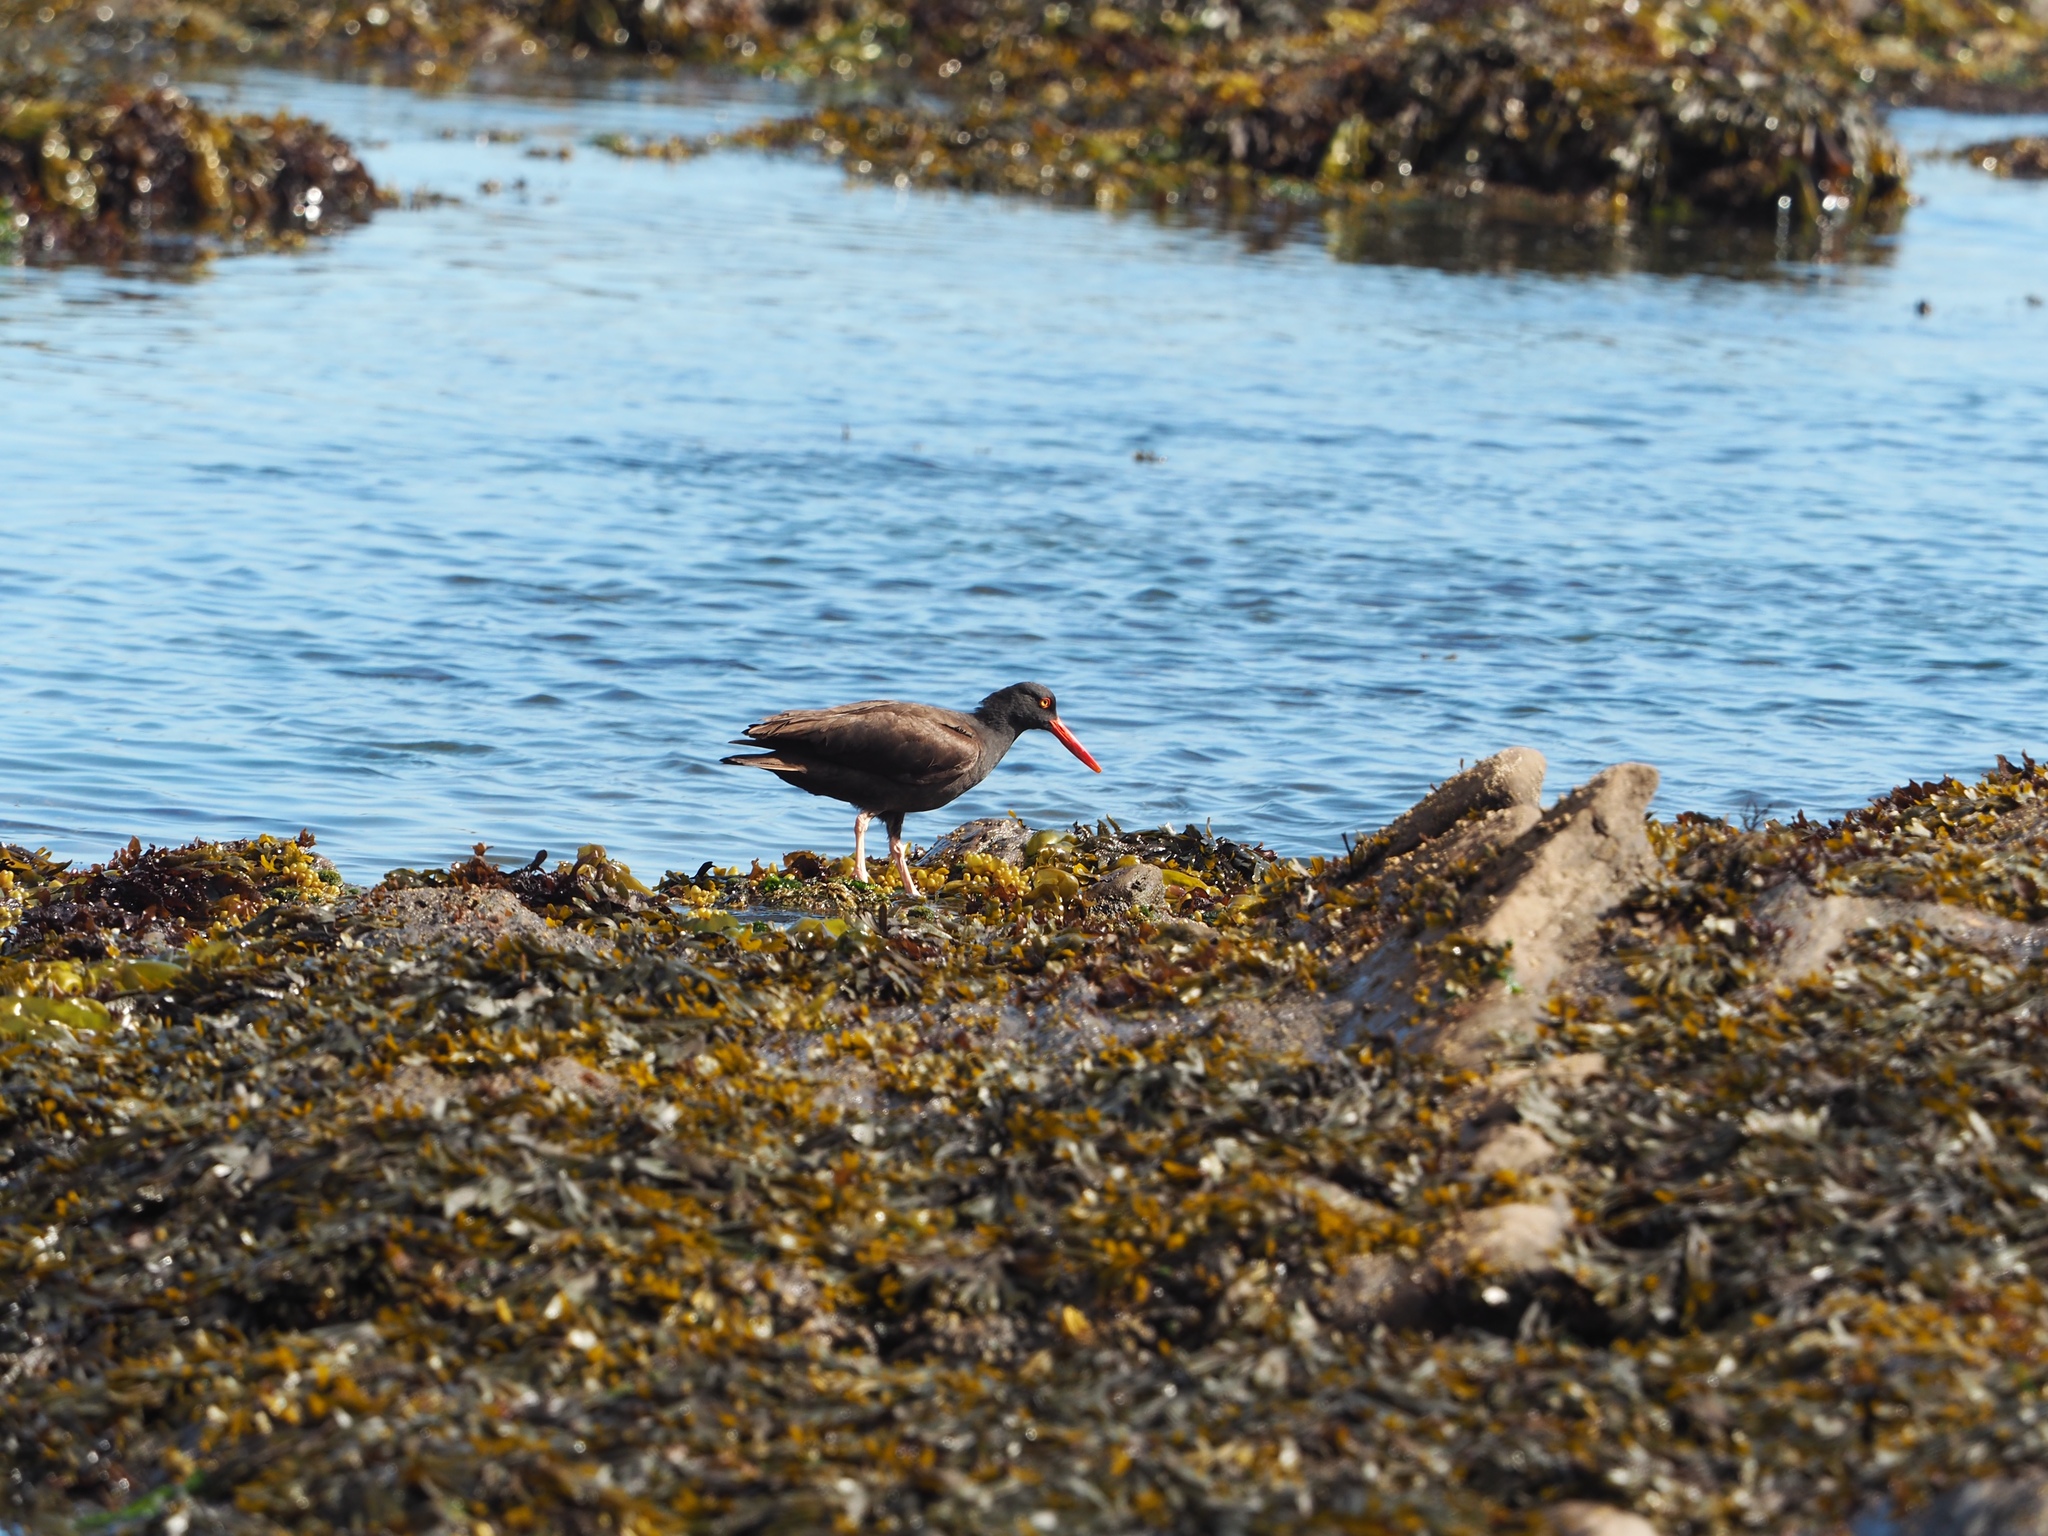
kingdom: Animalia
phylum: Chordata
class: Aves
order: Charadriiformes
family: Haematopodidae
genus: Haematopus
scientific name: Haematopus bachmani
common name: Black oystercatcher
